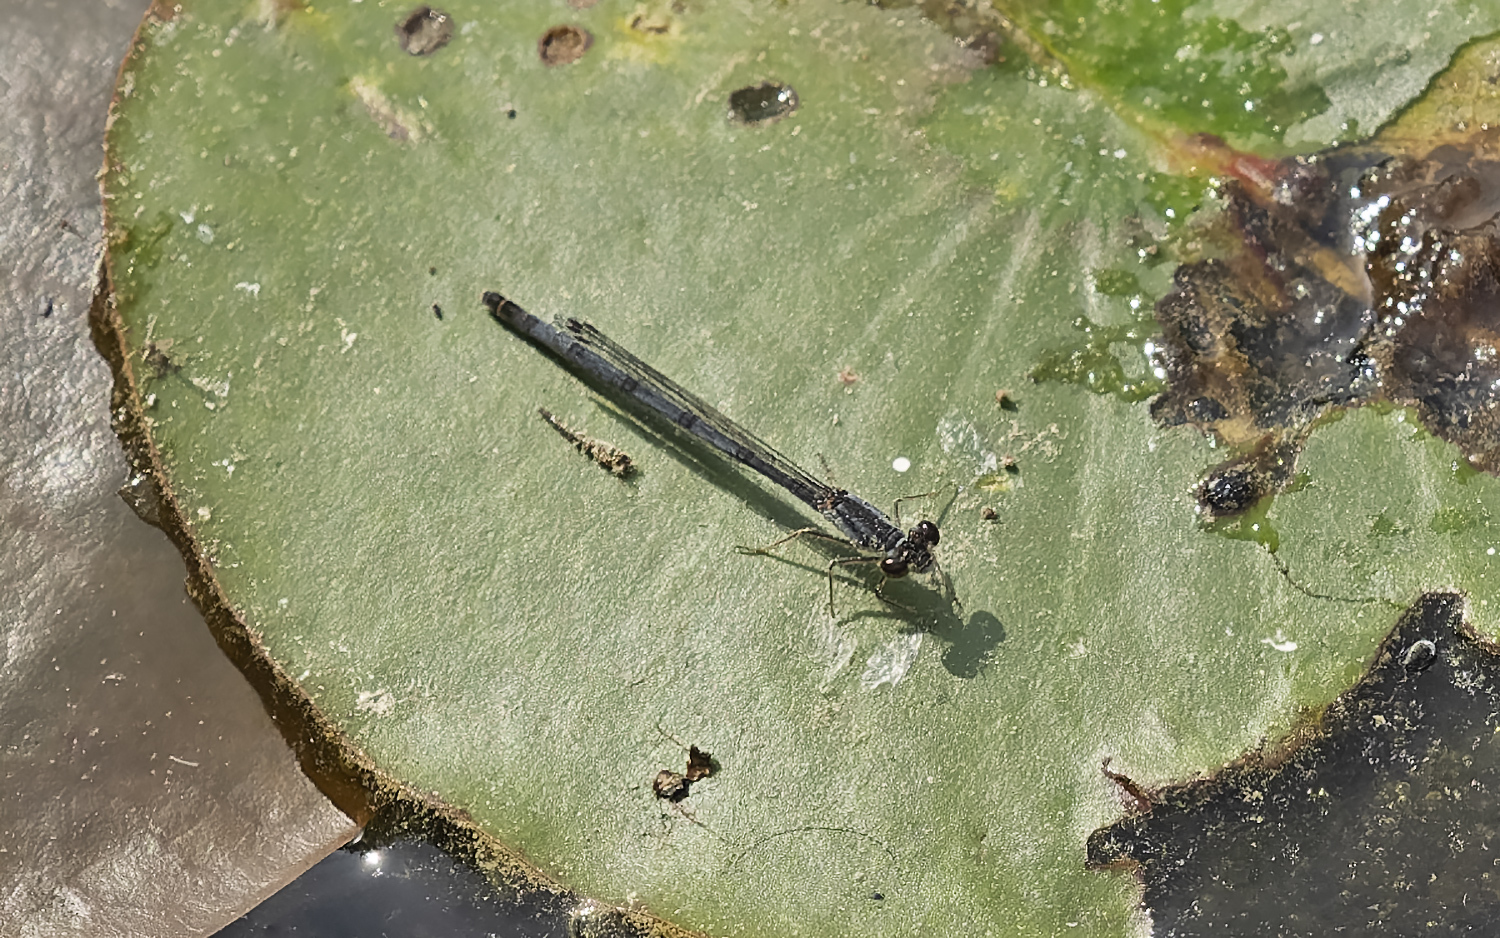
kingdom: Animalia
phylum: Arthropoda
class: Insecta
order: Odonata
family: Coenagrionidae
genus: Ischnura
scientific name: Ischnura posita
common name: Fragile forktail
